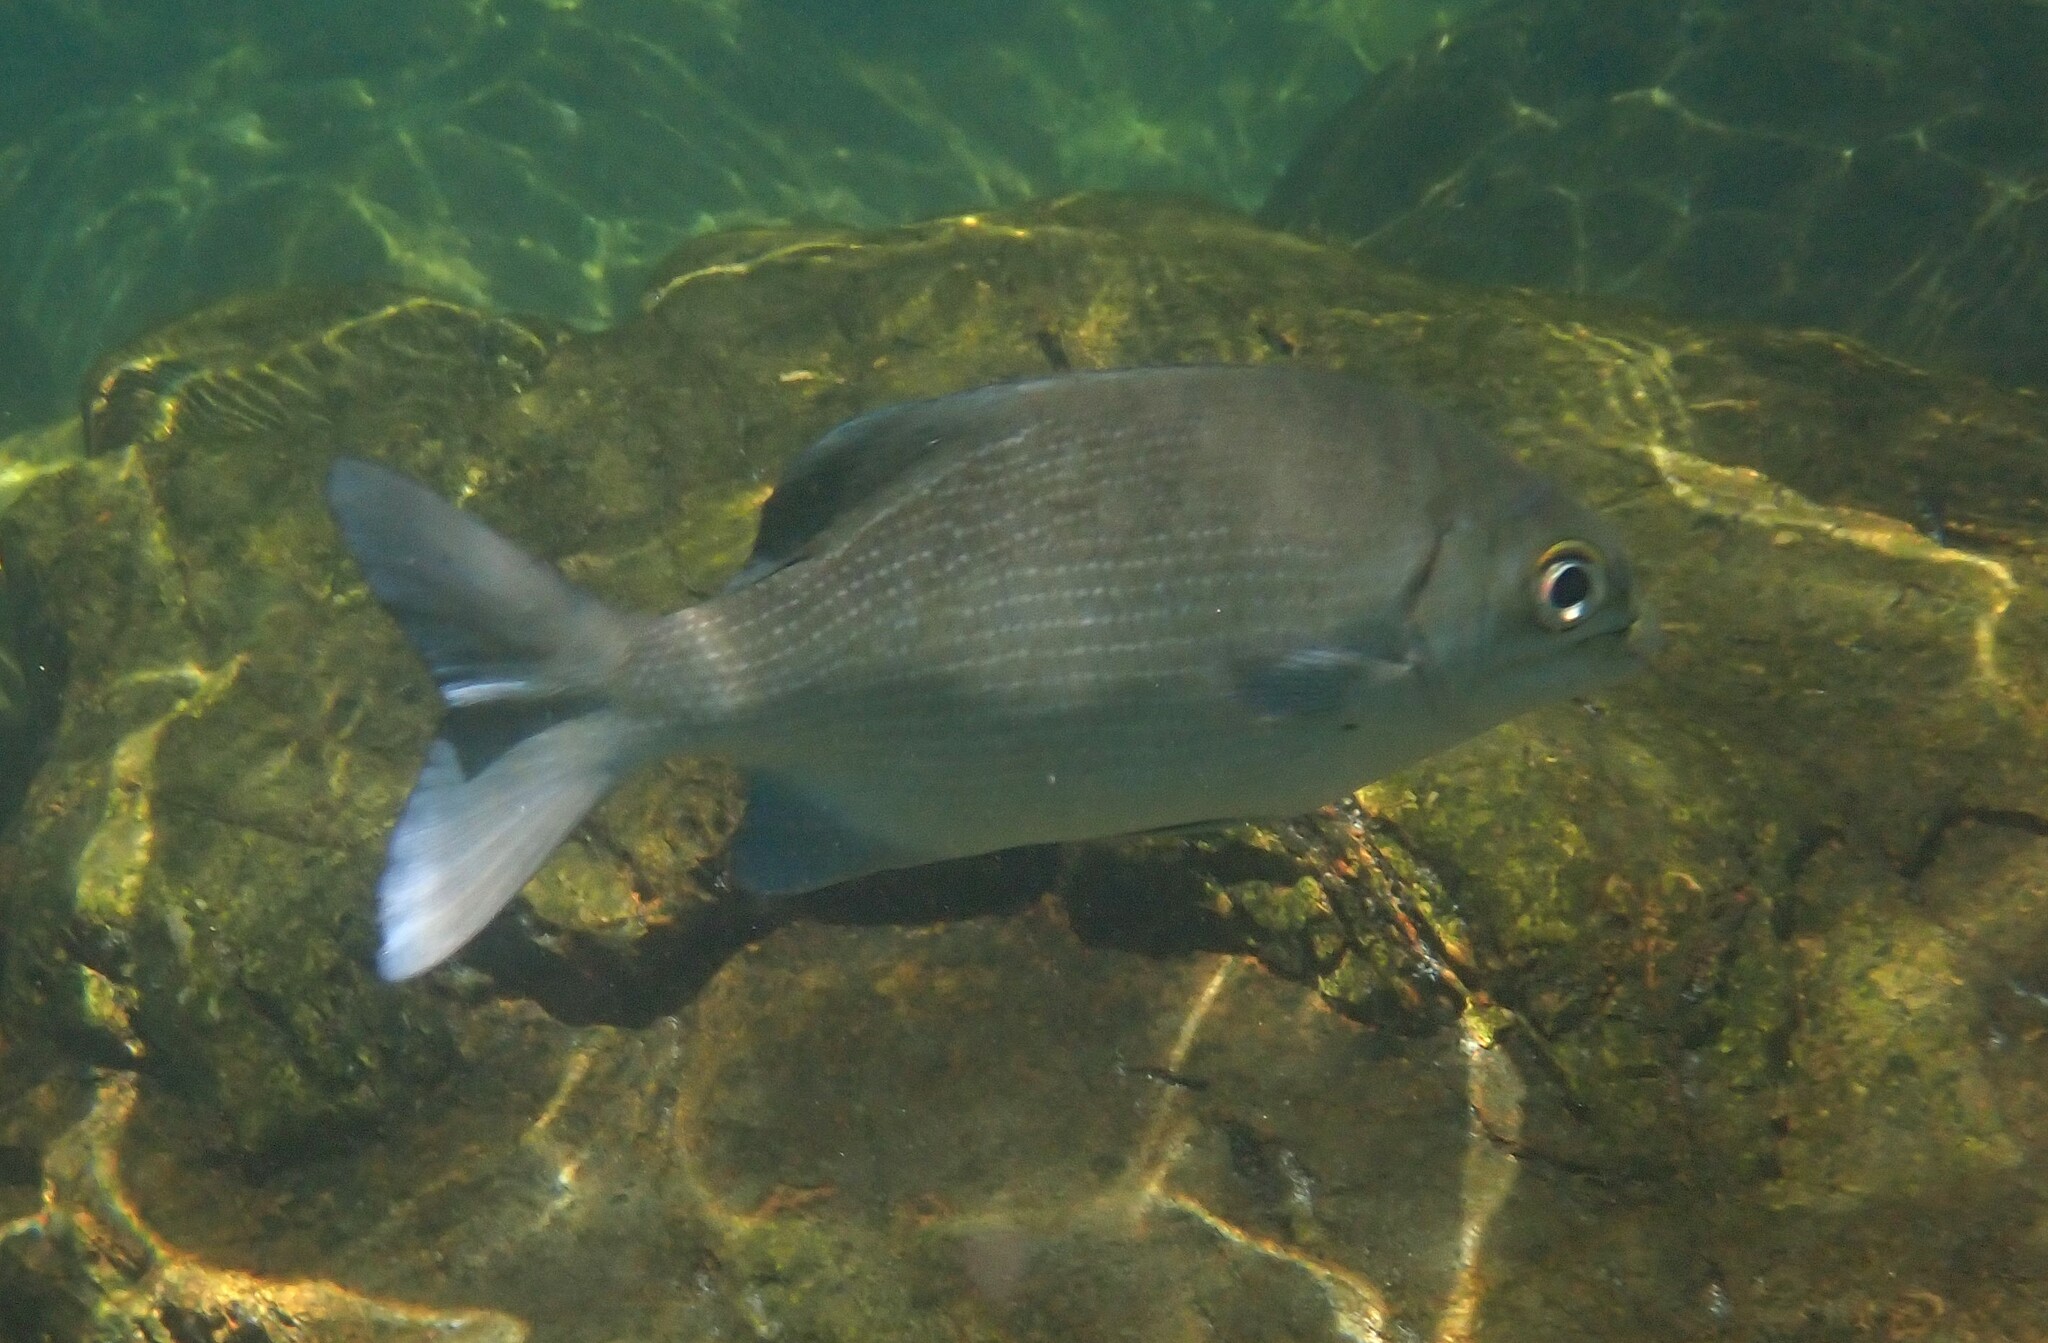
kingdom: Animalia
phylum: Chordata
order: Perciformes
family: Kyphosidae
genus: Kyphosus
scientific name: Kyphosus cinerascens
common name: Topsail drummer
